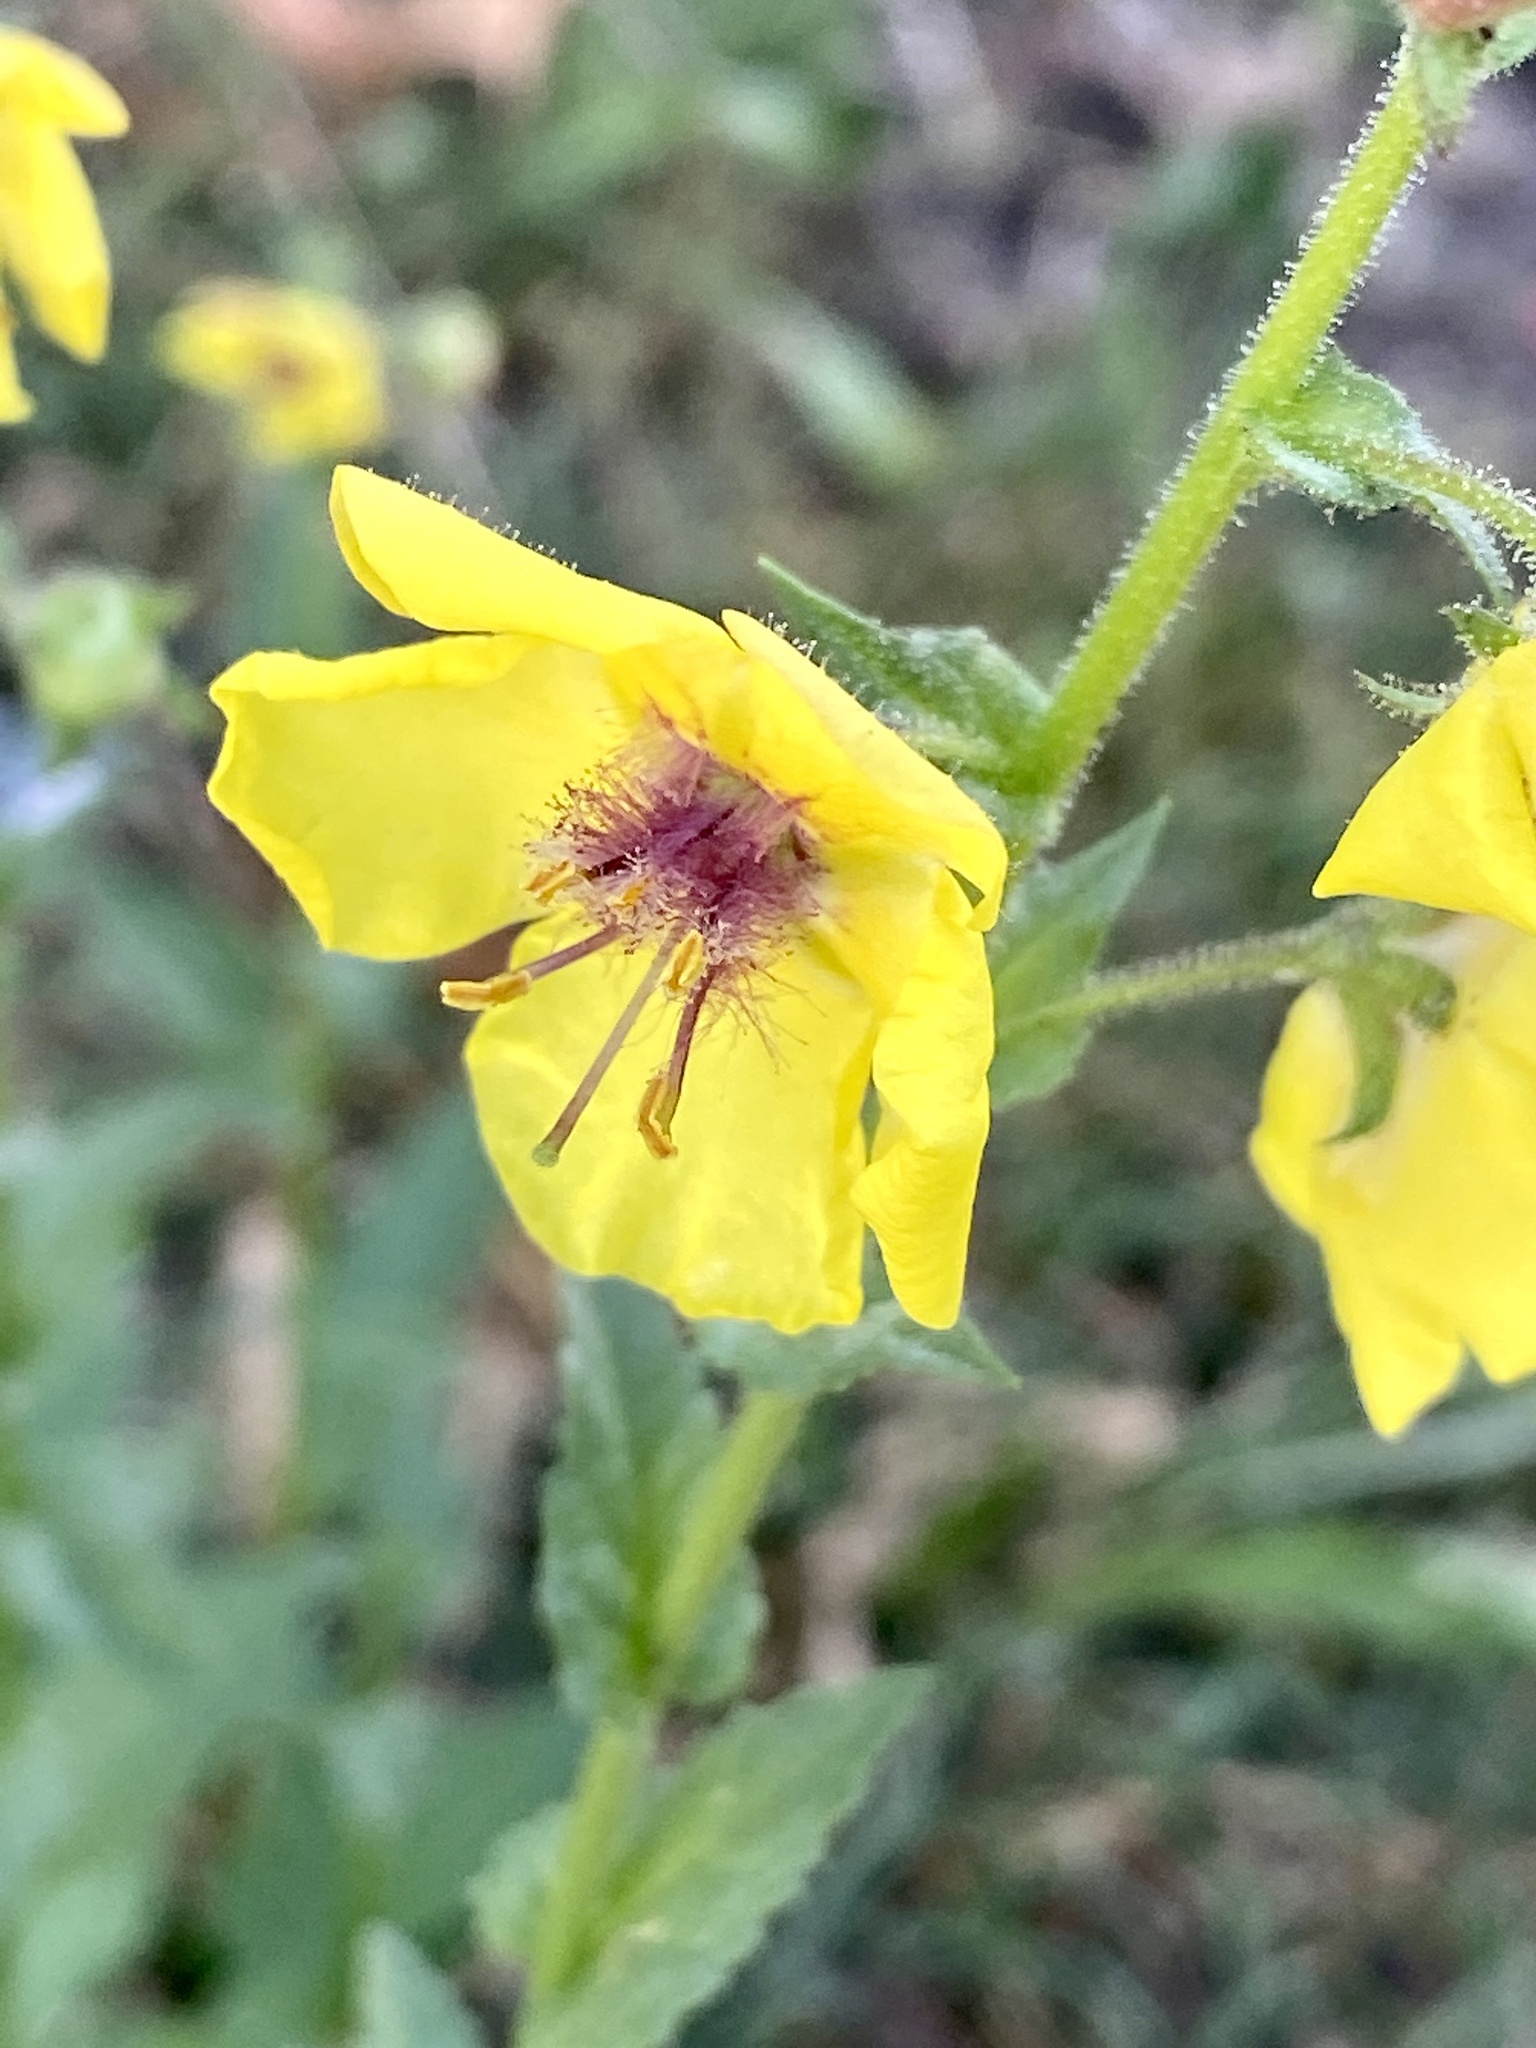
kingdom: Plantae
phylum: Tracheophyta
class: Magnoliopsida
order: Lamiales
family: Scrophulariaceae
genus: Verbascum
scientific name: Verbascum blattaria
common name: Moth mullein
